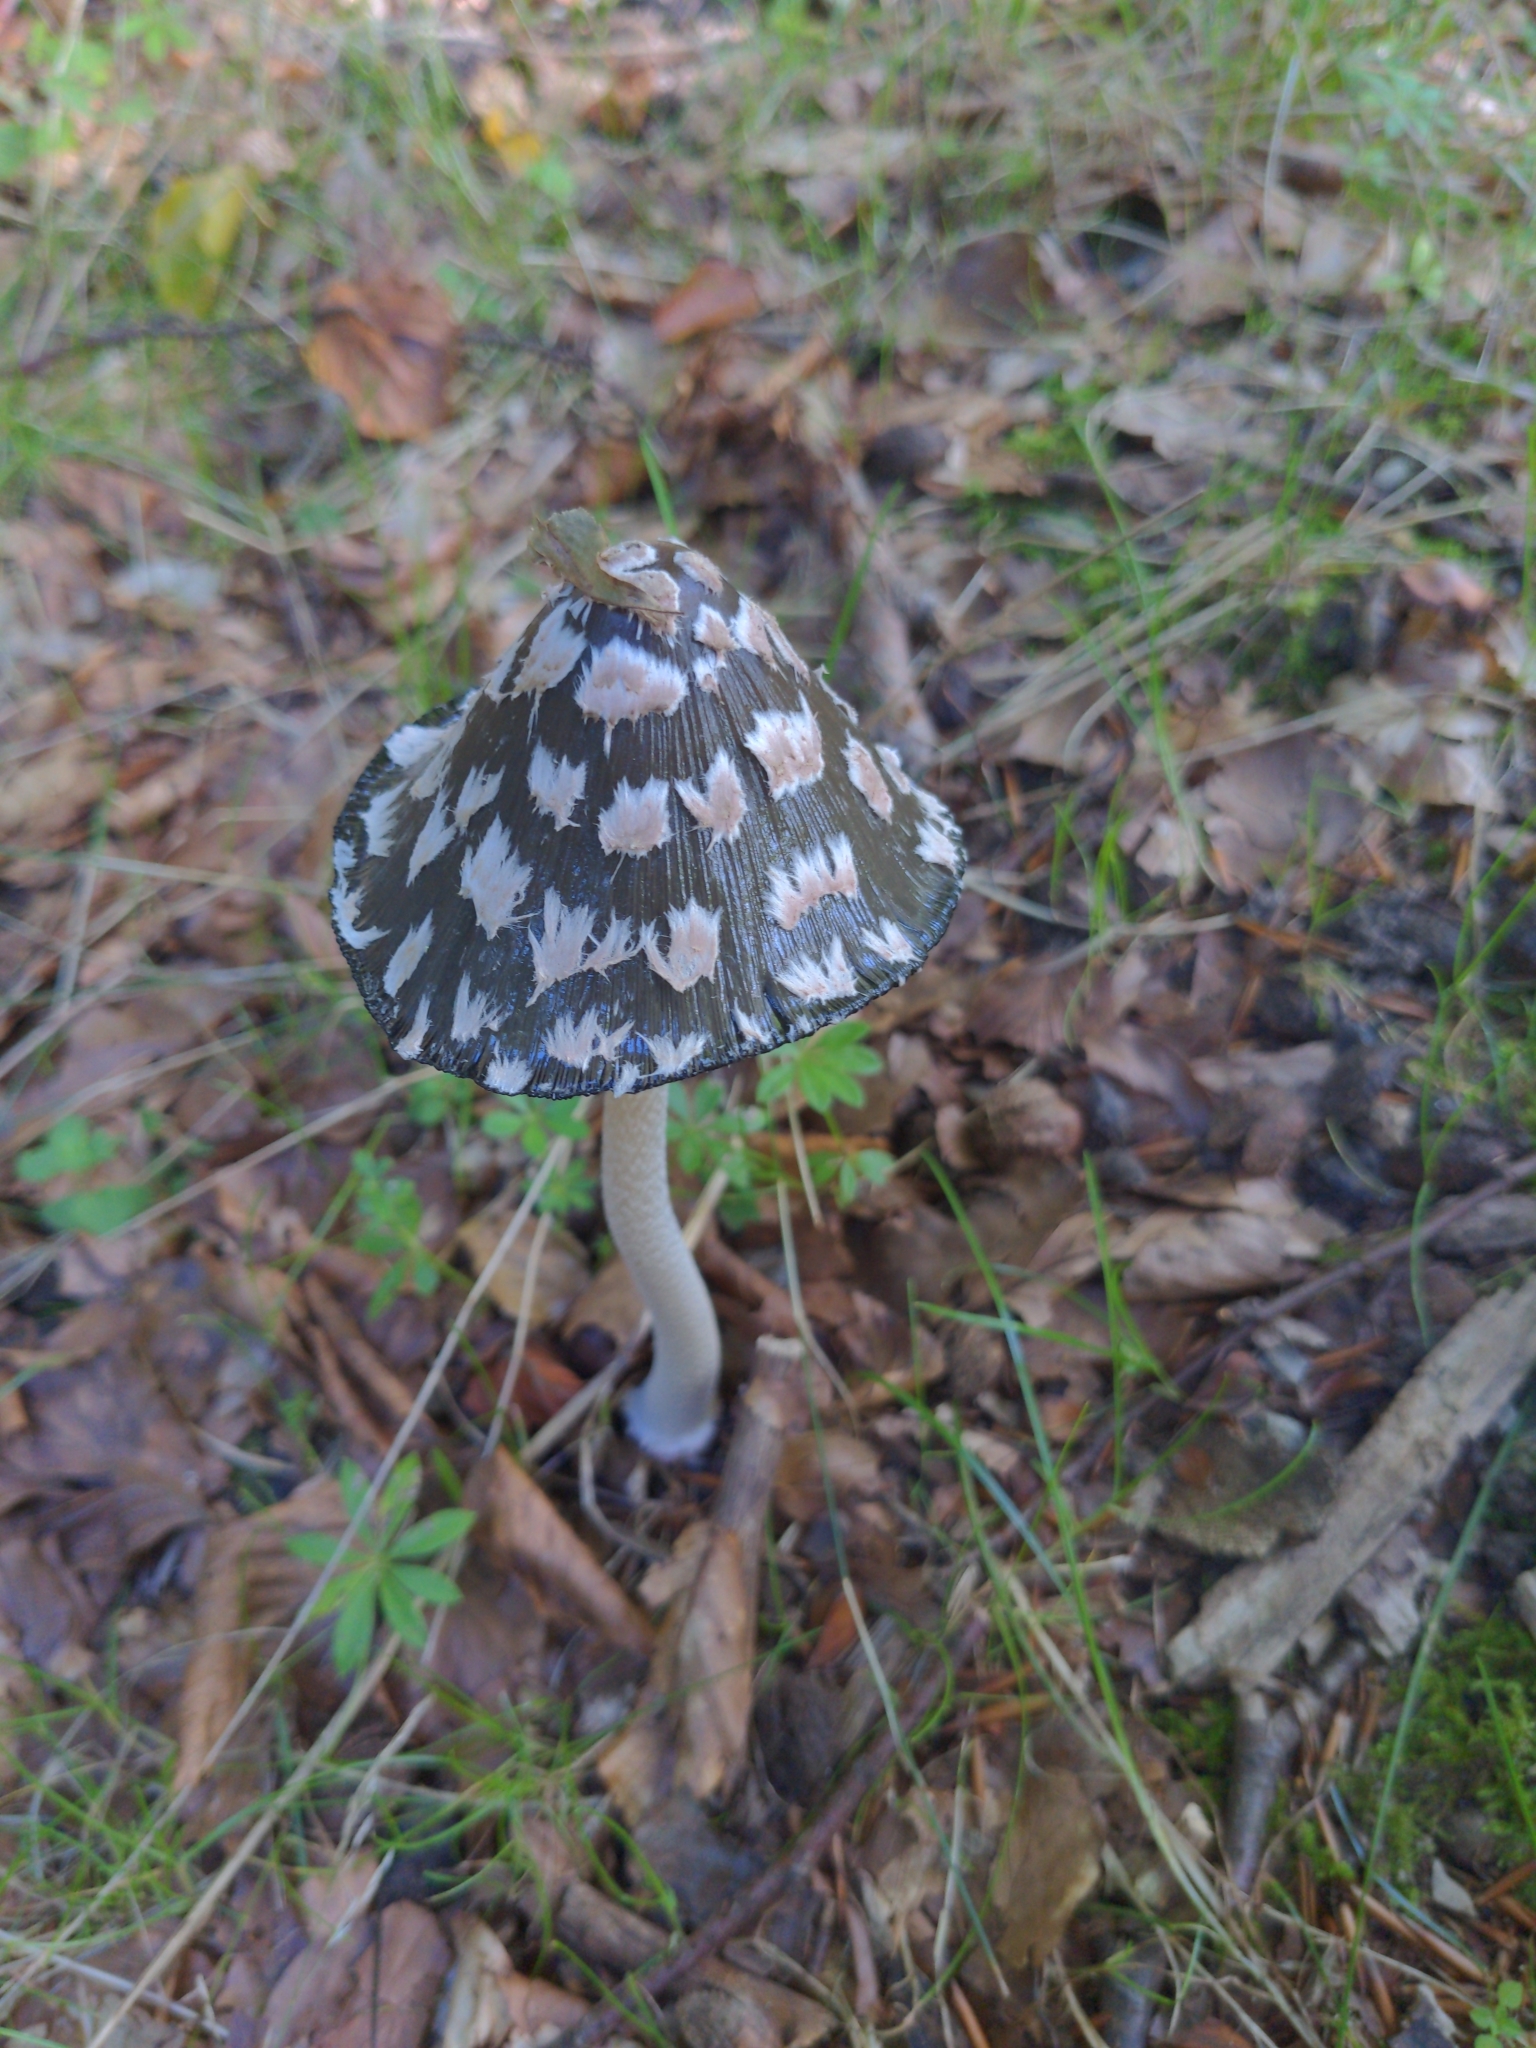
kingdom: Fungi
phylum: Basidiomycota
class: Agaricomycetes
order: Agaricales
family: Psathyrellaceae
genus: Coprinopsis
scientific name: Coprinopsis picacea
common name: Magpie inkcap
